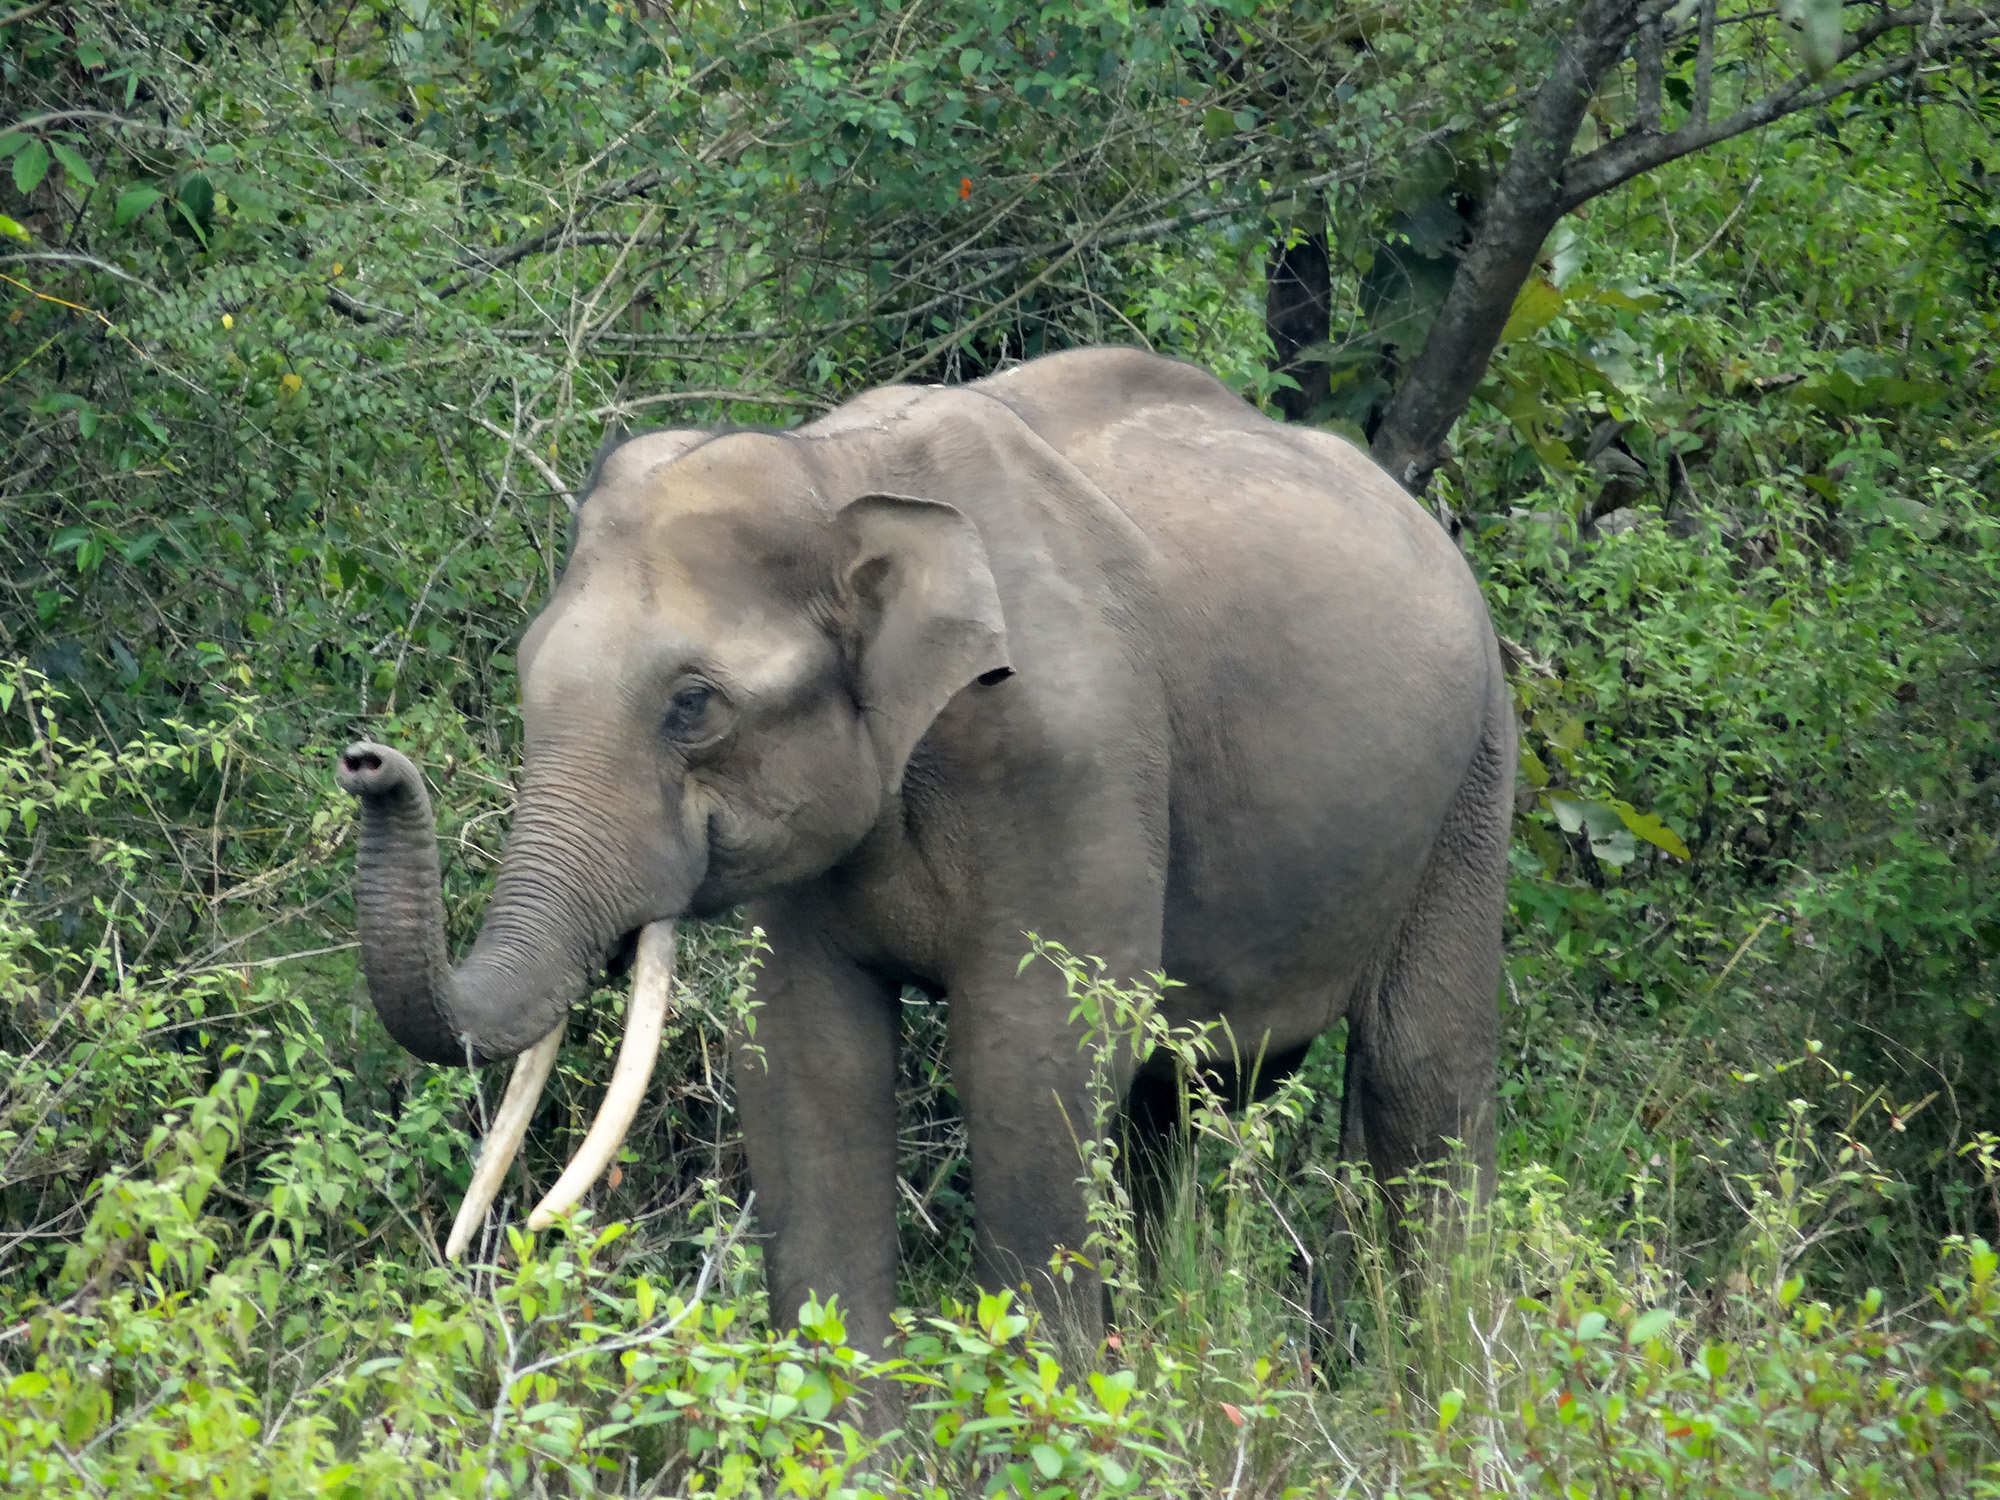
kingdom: Animalia
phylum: Chordata
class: Mammalia
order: Proboscidea
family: Elephantidae
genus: Elephas
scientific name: Elephas maximus
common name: Asian elephant
